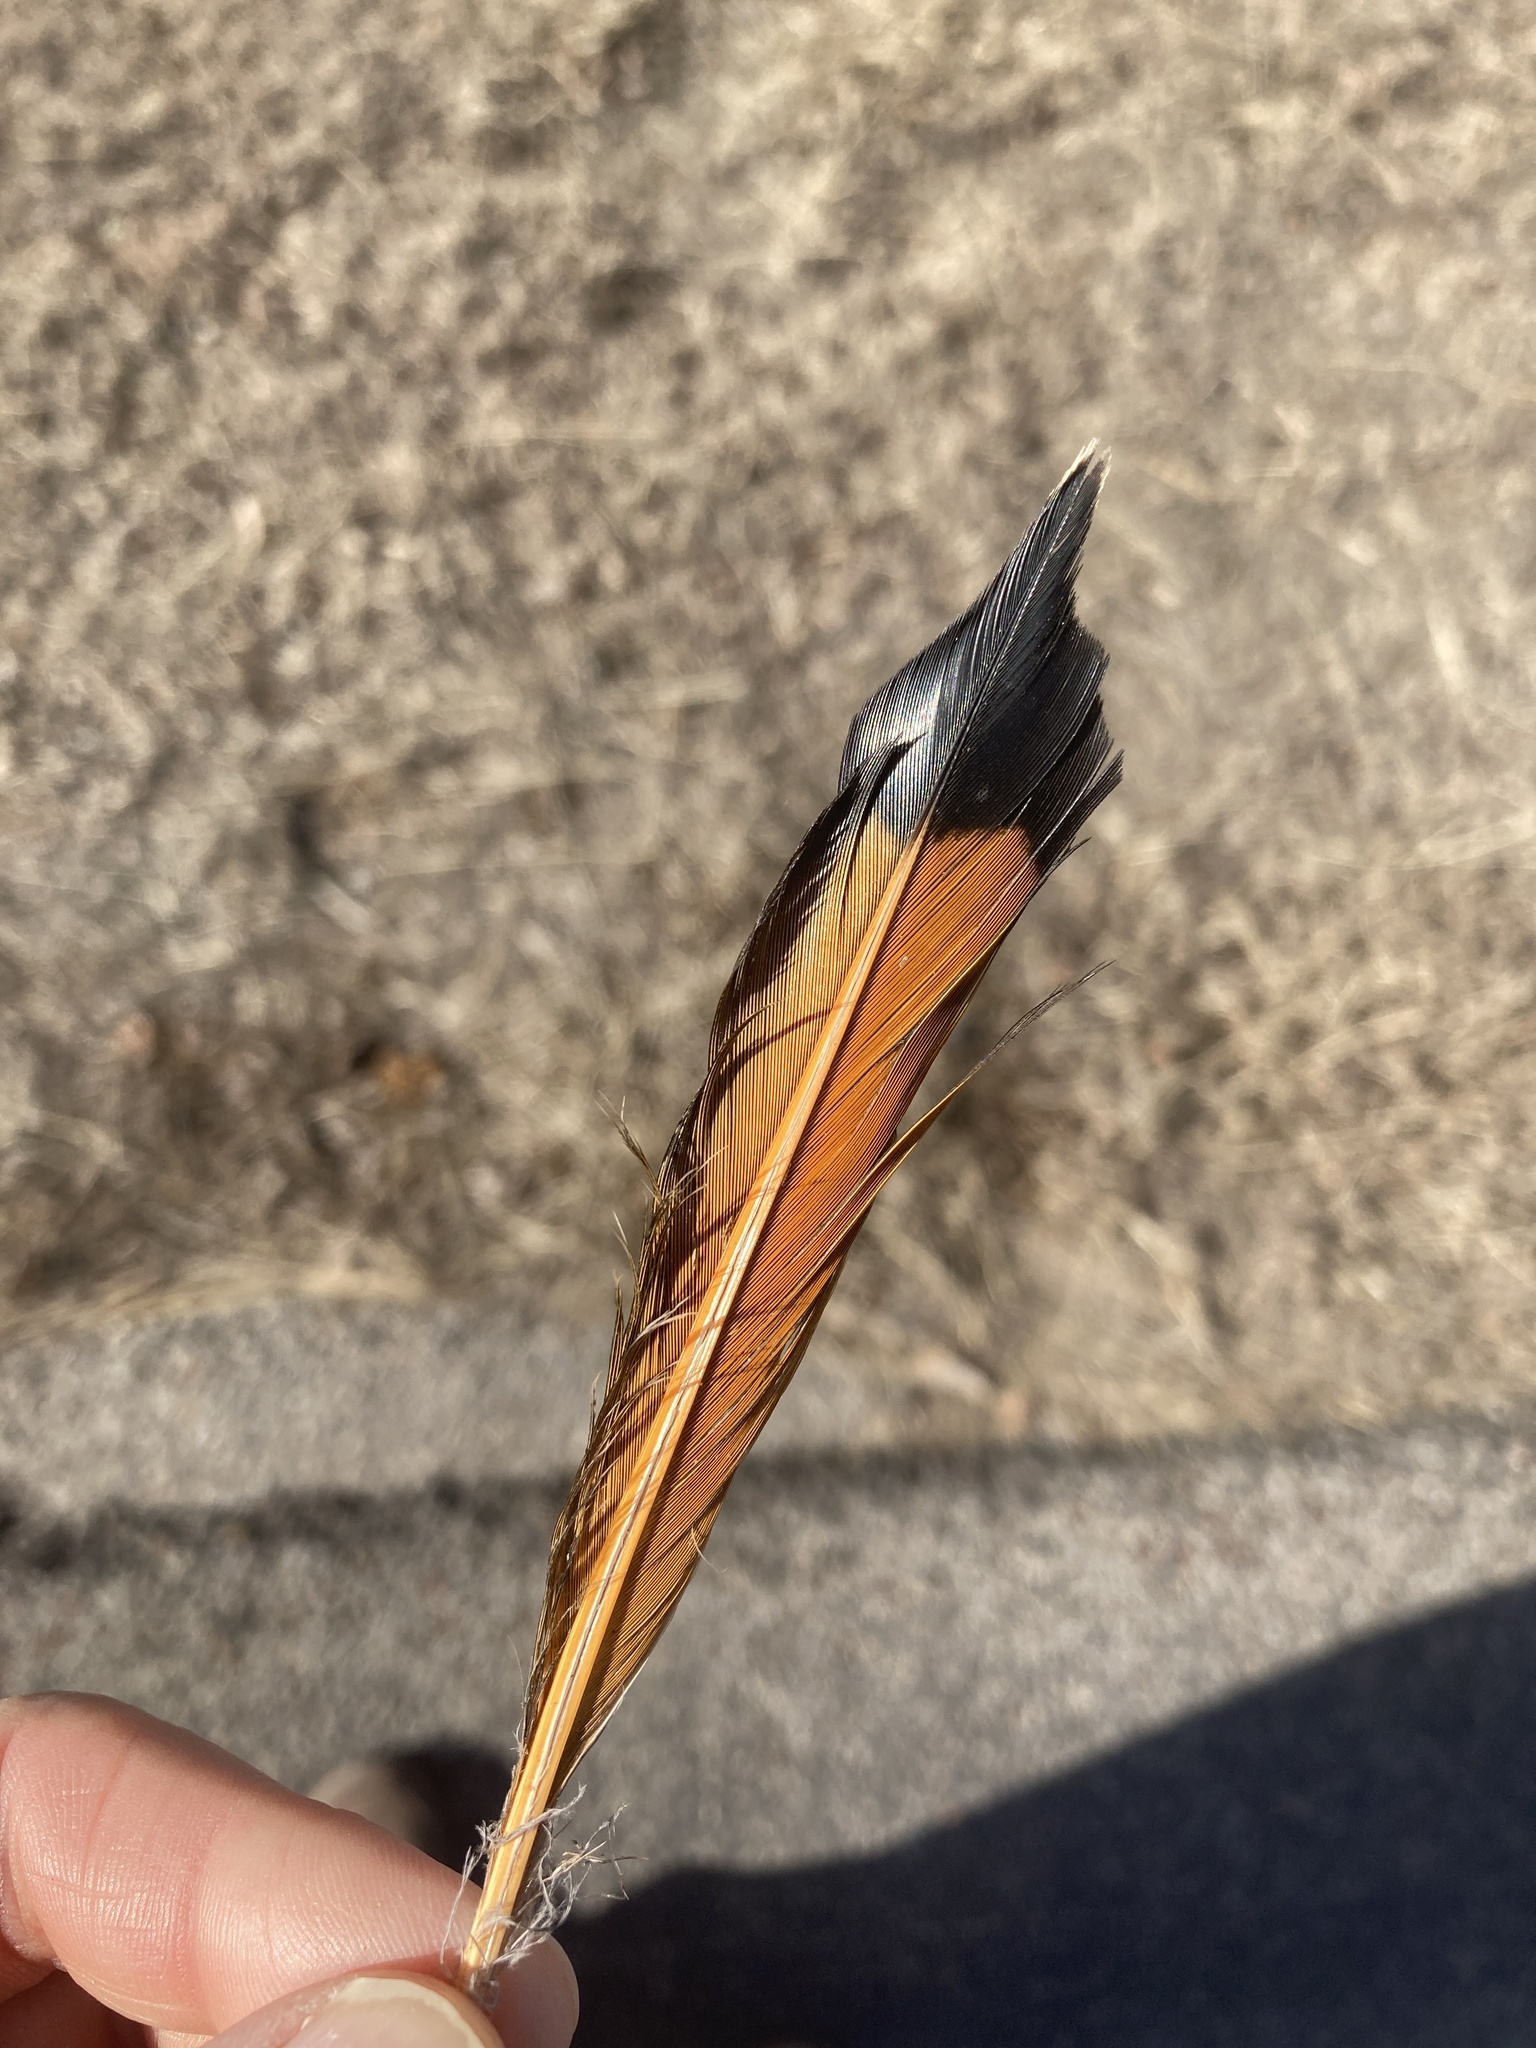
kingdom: Animalia
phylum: Chordata
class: Aves
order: Piciformes
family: Picidae
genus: Colaptes
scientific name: Colaptes auratus
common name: Northern flicker
